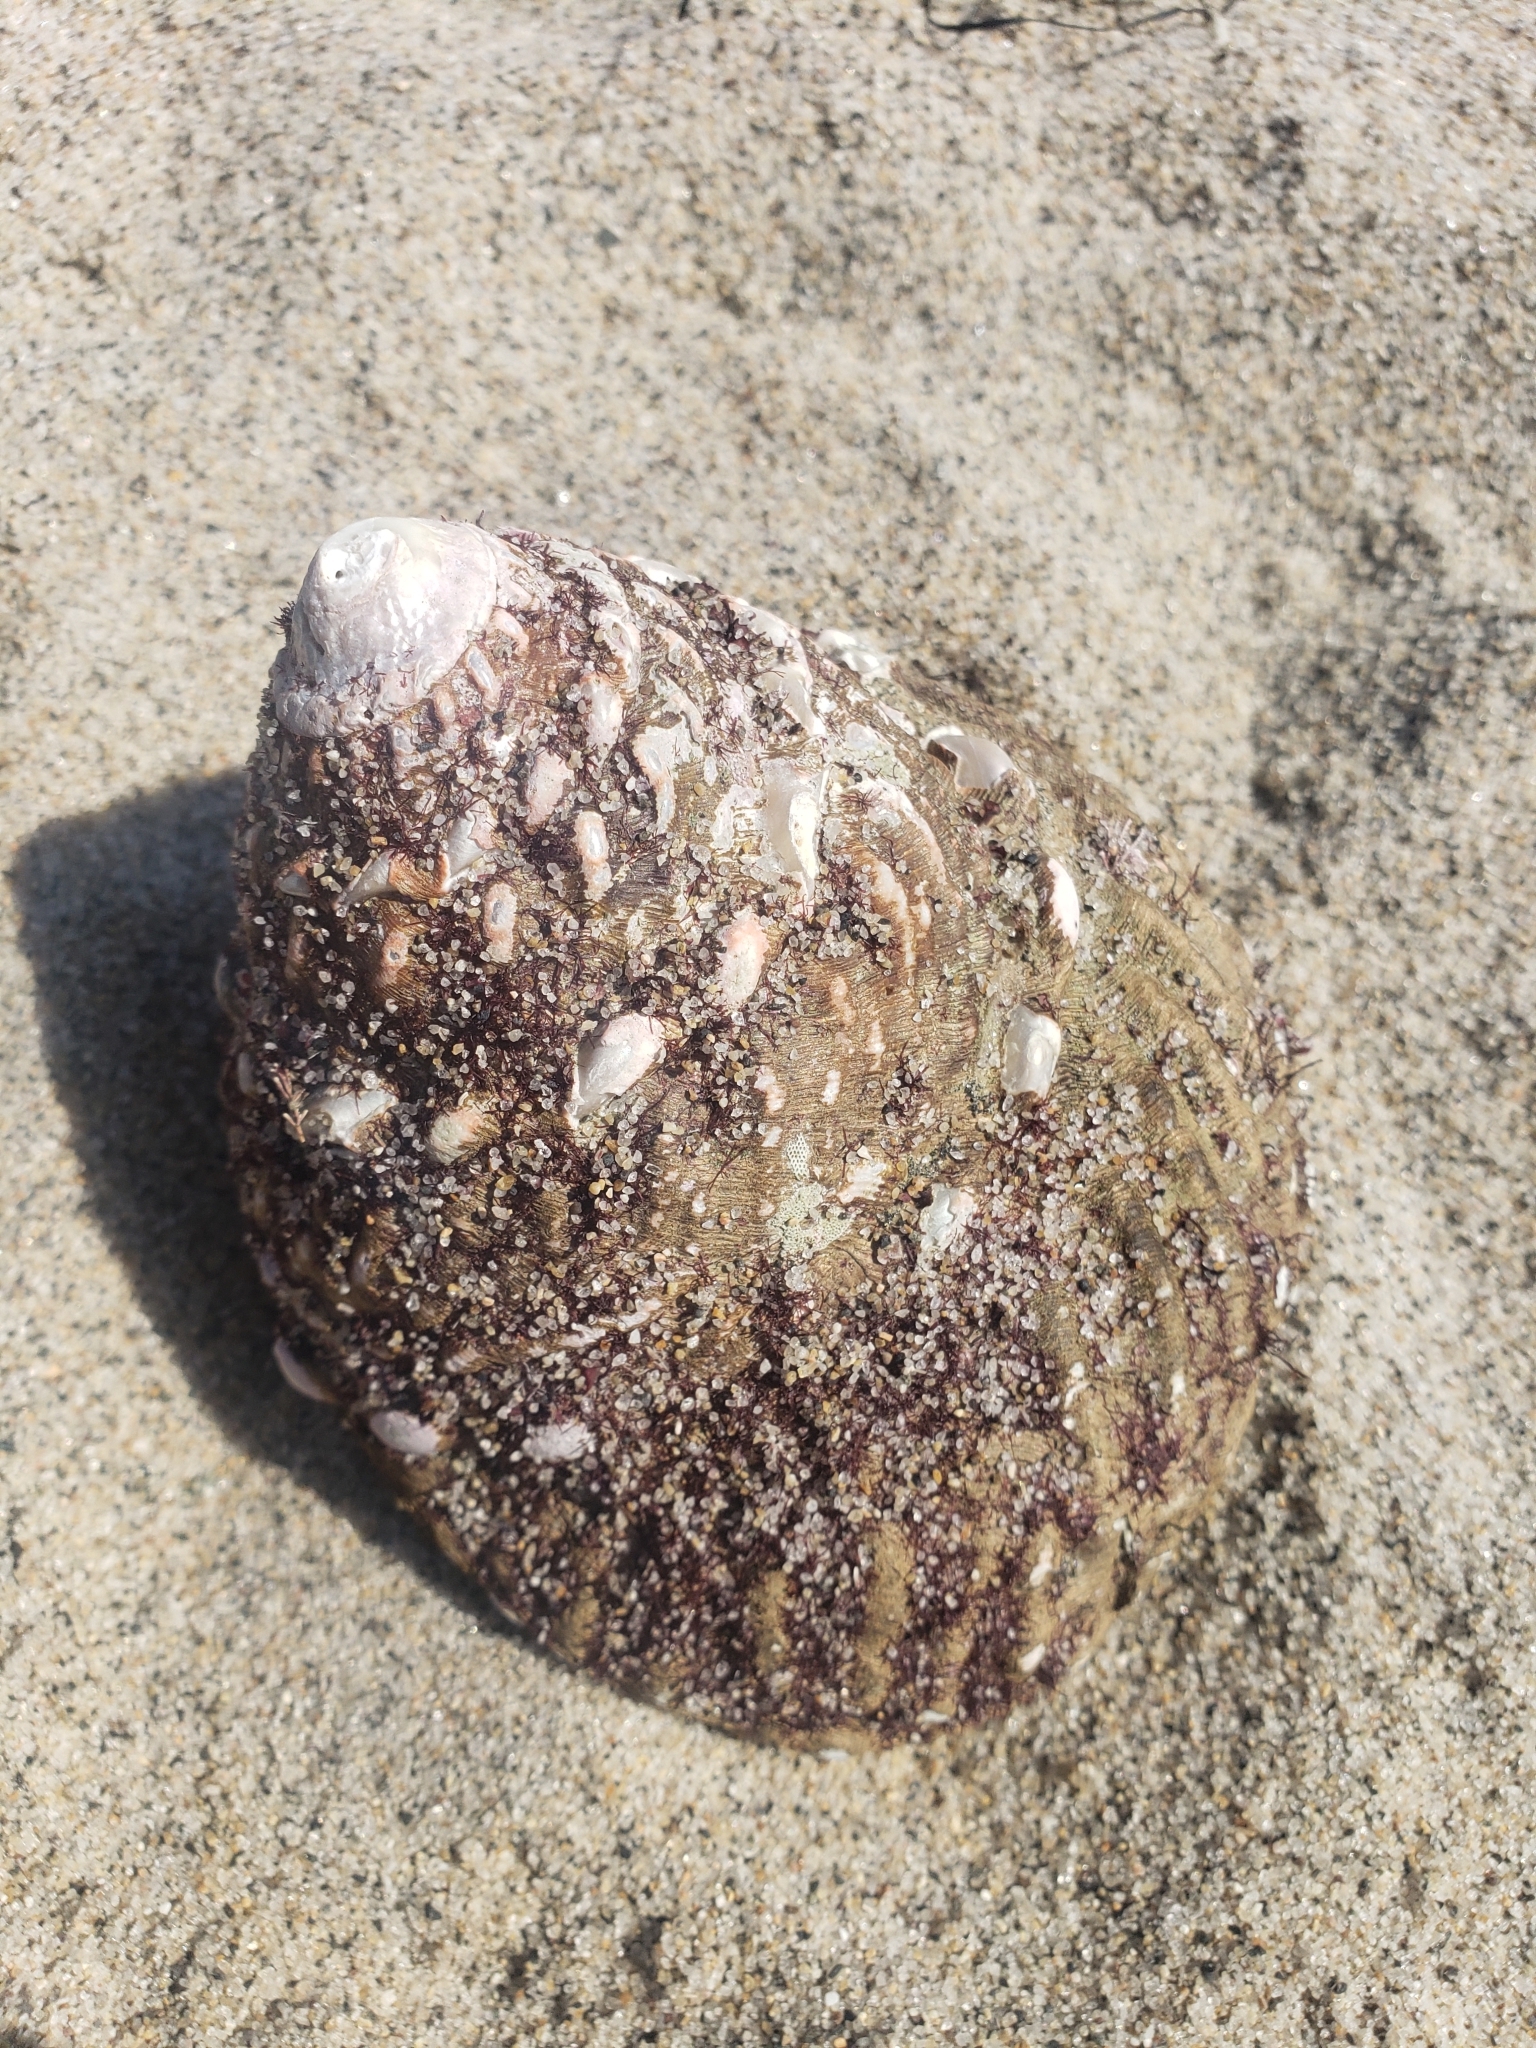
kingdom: Animalia
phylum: Mollusca
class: Gastropoda
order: Trochida
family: Turbinidae
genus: Megastraea
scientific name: Megastraea undosa
